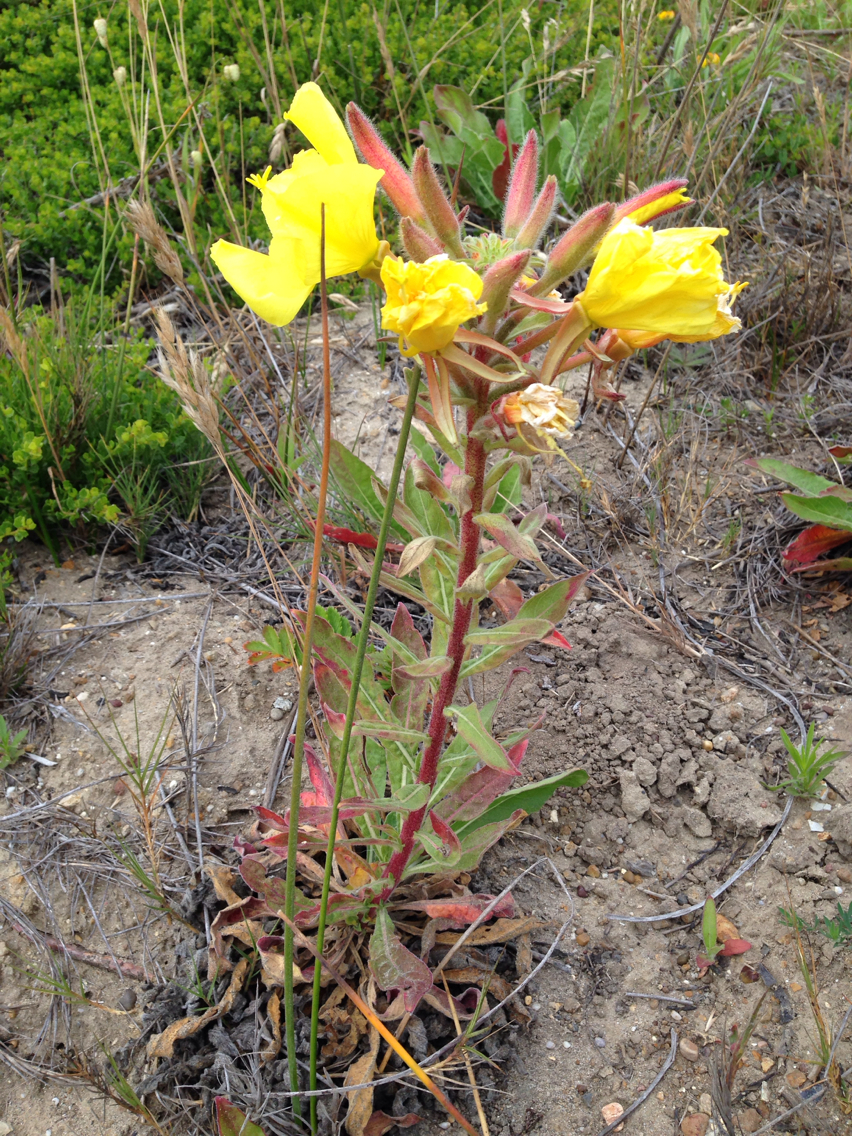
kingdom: Plantae
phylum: Tracheophyta
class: Magnoliopsida
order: Myrtales
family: Onagraceae
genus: Oenothera
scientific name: Oenothera elata
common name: Hooker's evening-primrose
